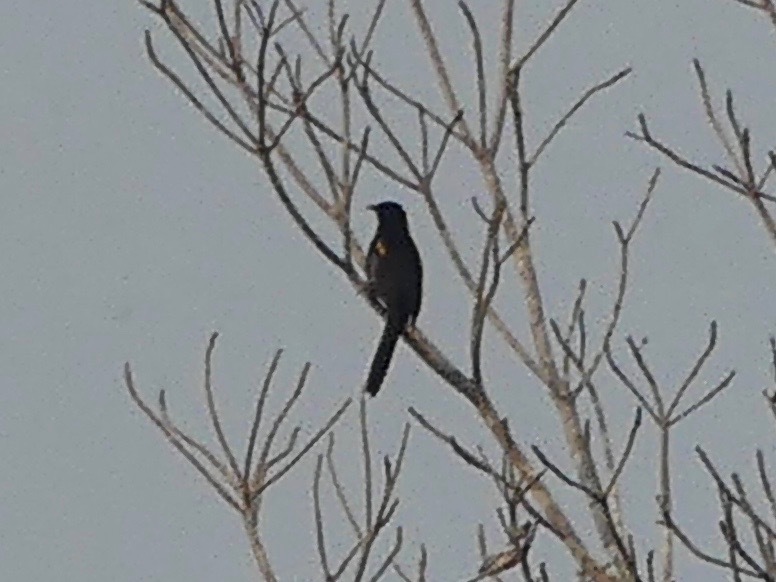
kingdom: Animalia
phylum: Chordata
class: Aves
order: Passeriformes
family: Icteridae
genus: Icterus
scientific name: Icterus cayanensis
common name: Epaulet oriole
